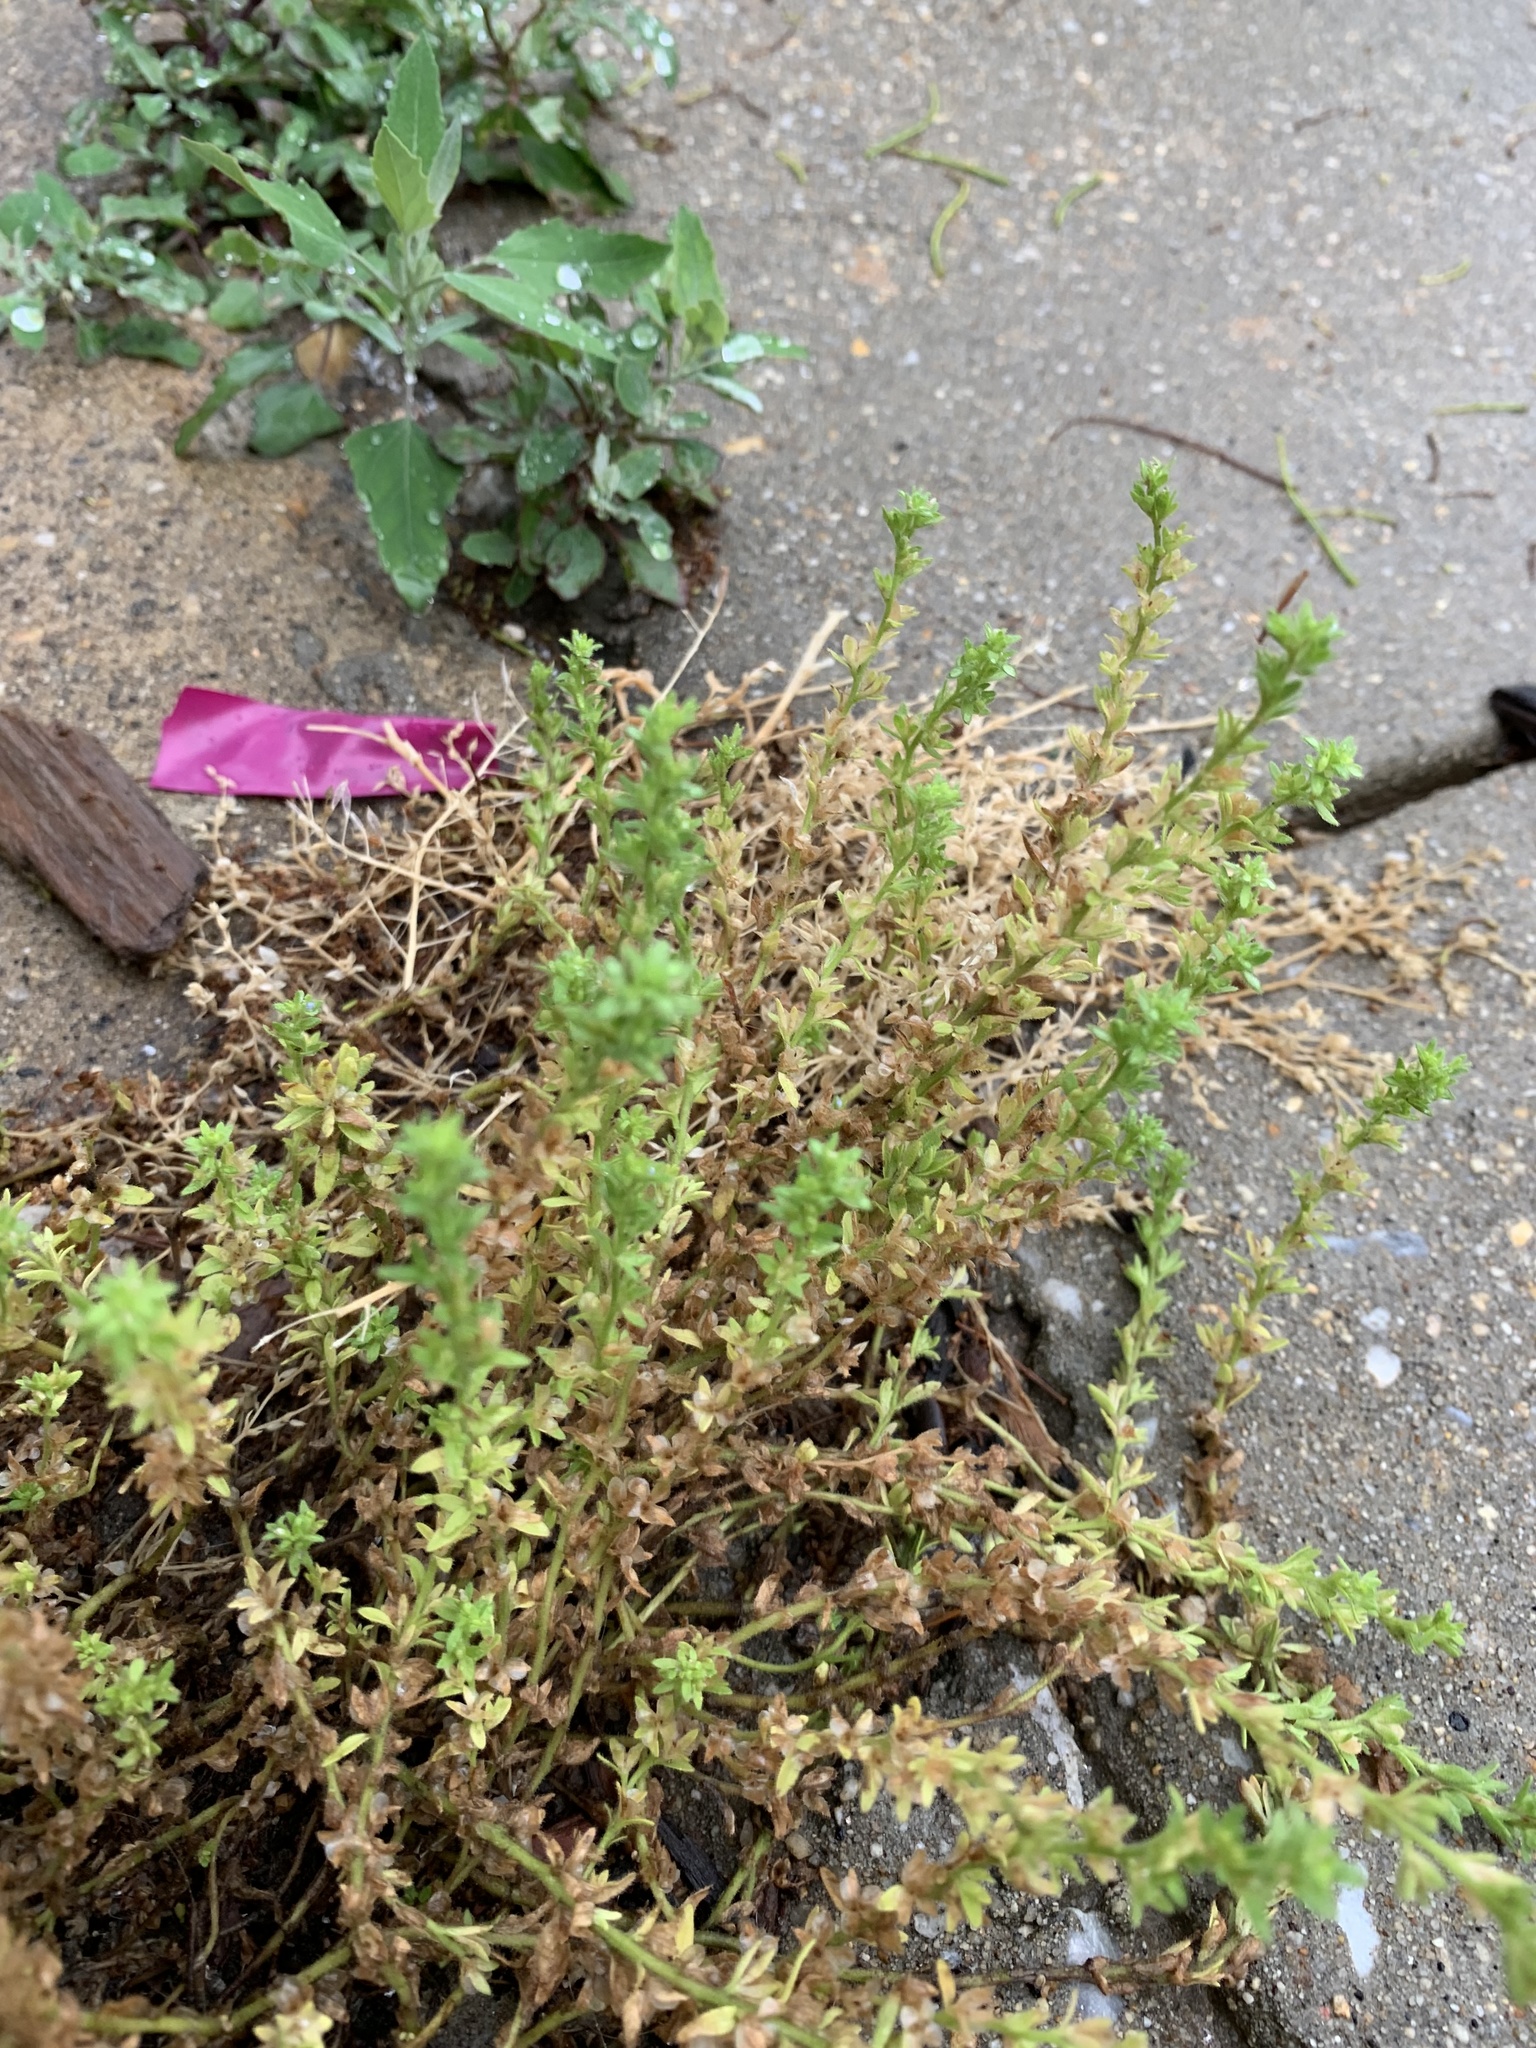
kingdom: Plantae
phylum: Tracheophyta
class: Magnoliopsida
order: Lamiales
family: Plantaginaceae
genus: Veronica
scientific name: Veronica arvensis
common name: Corn speedwell
